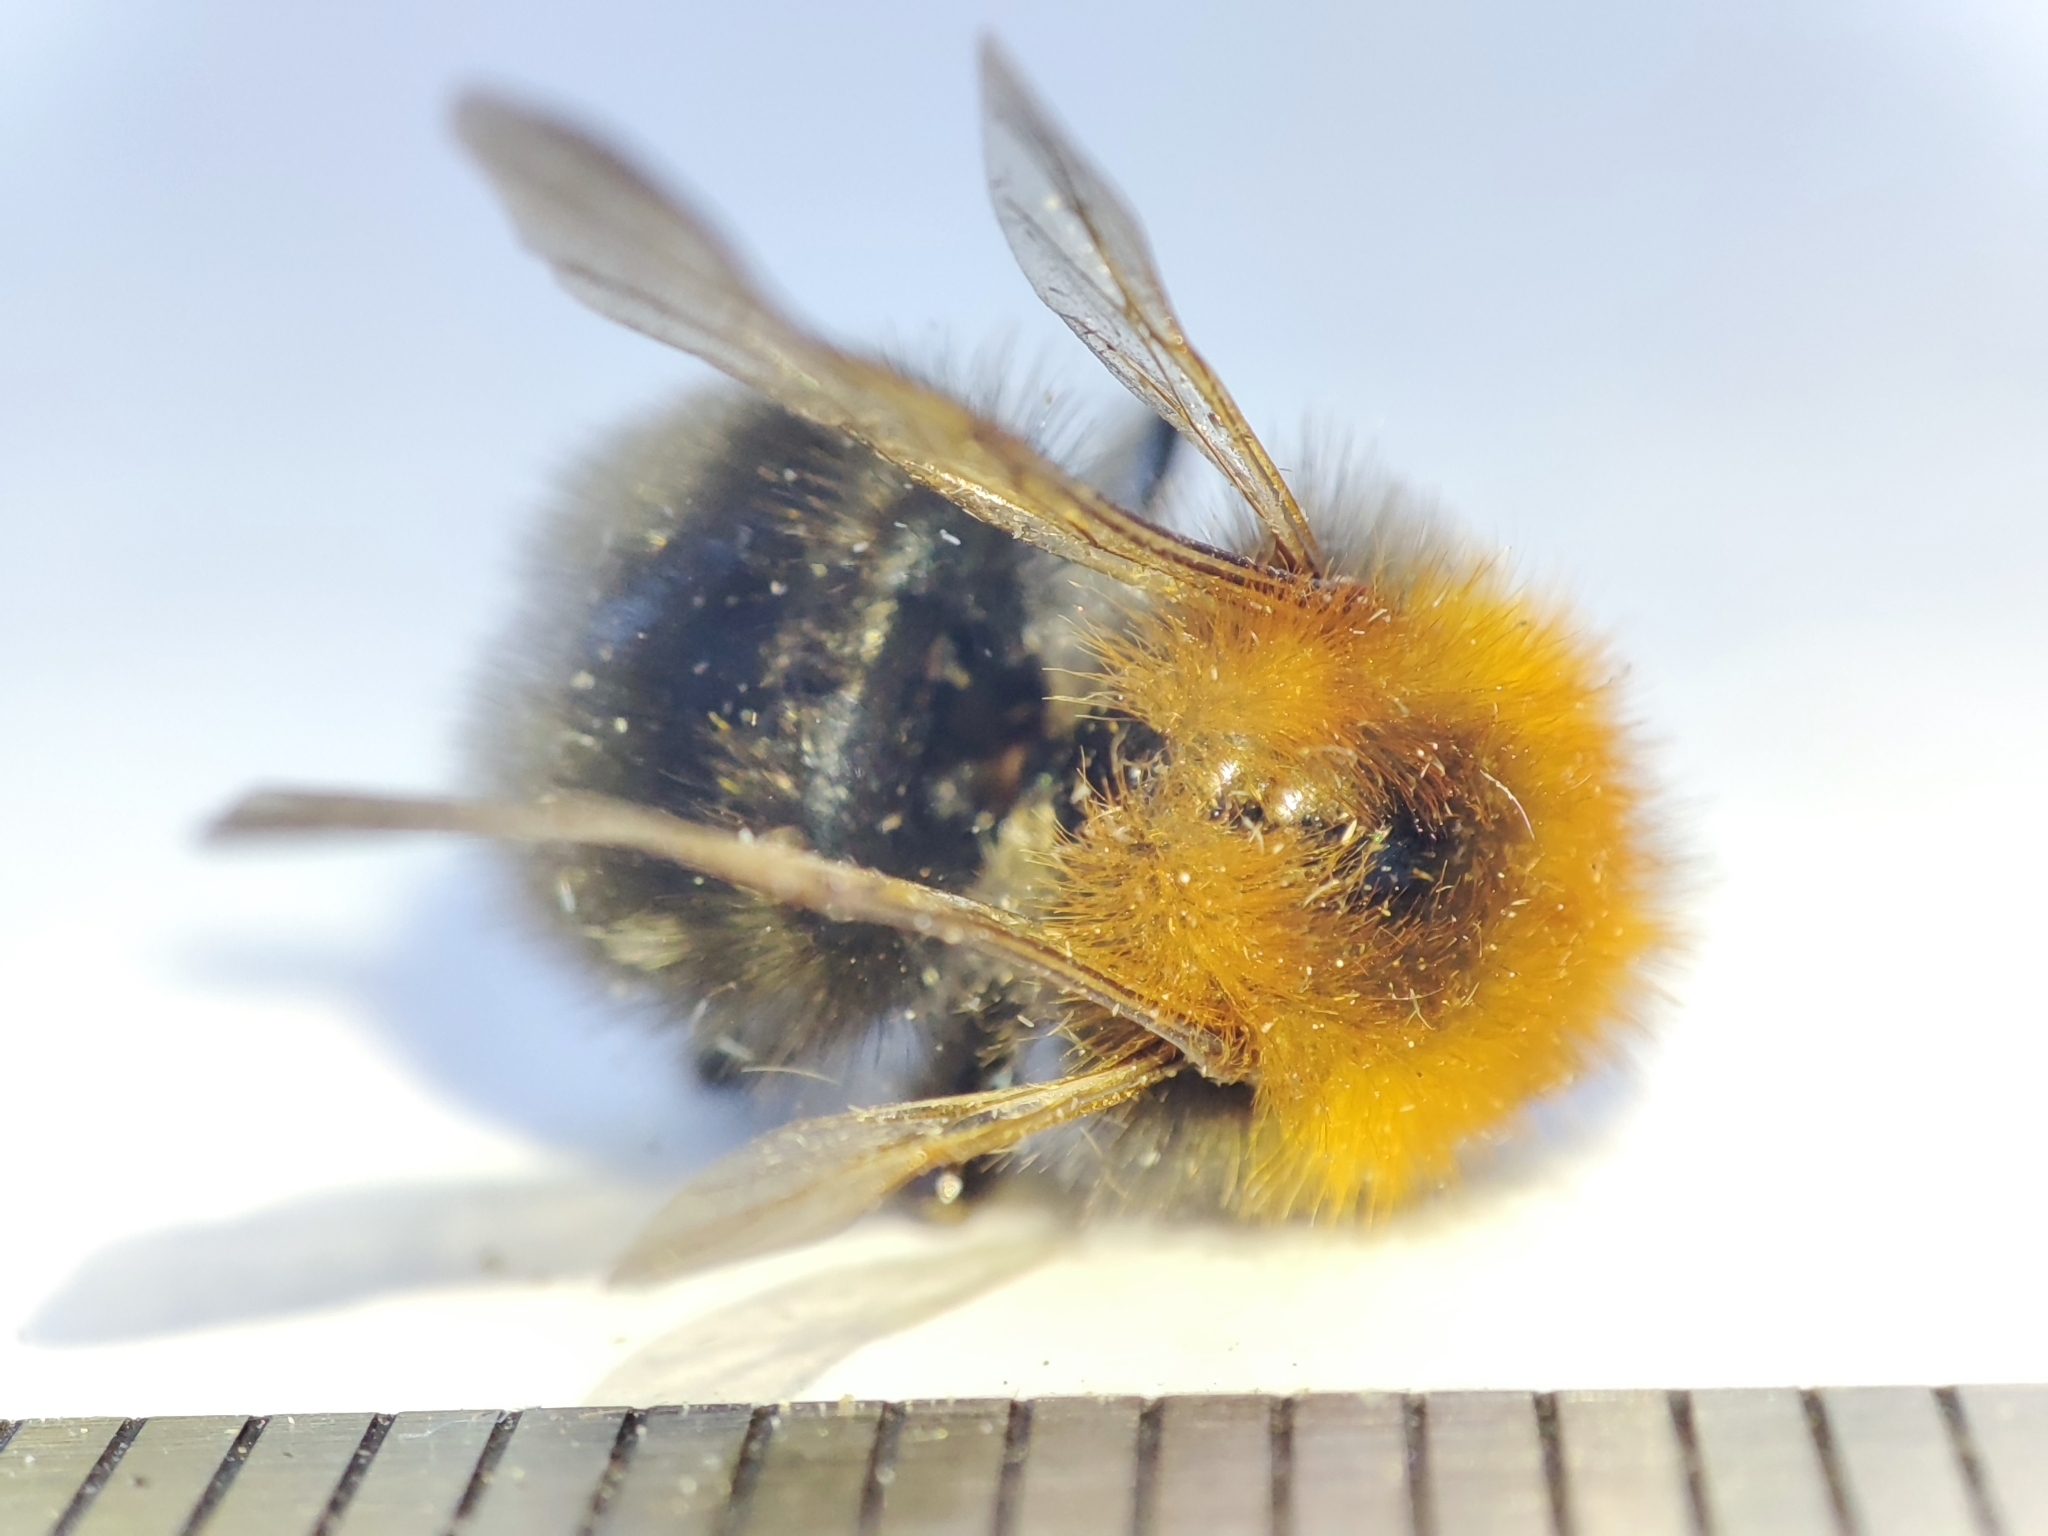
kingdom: Animalia
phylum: Arthropoda
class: Insecta
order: Hymenoptera
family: Apidae
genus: Bombus
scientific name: Bombus hypnorum
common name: New garden bumblebee
